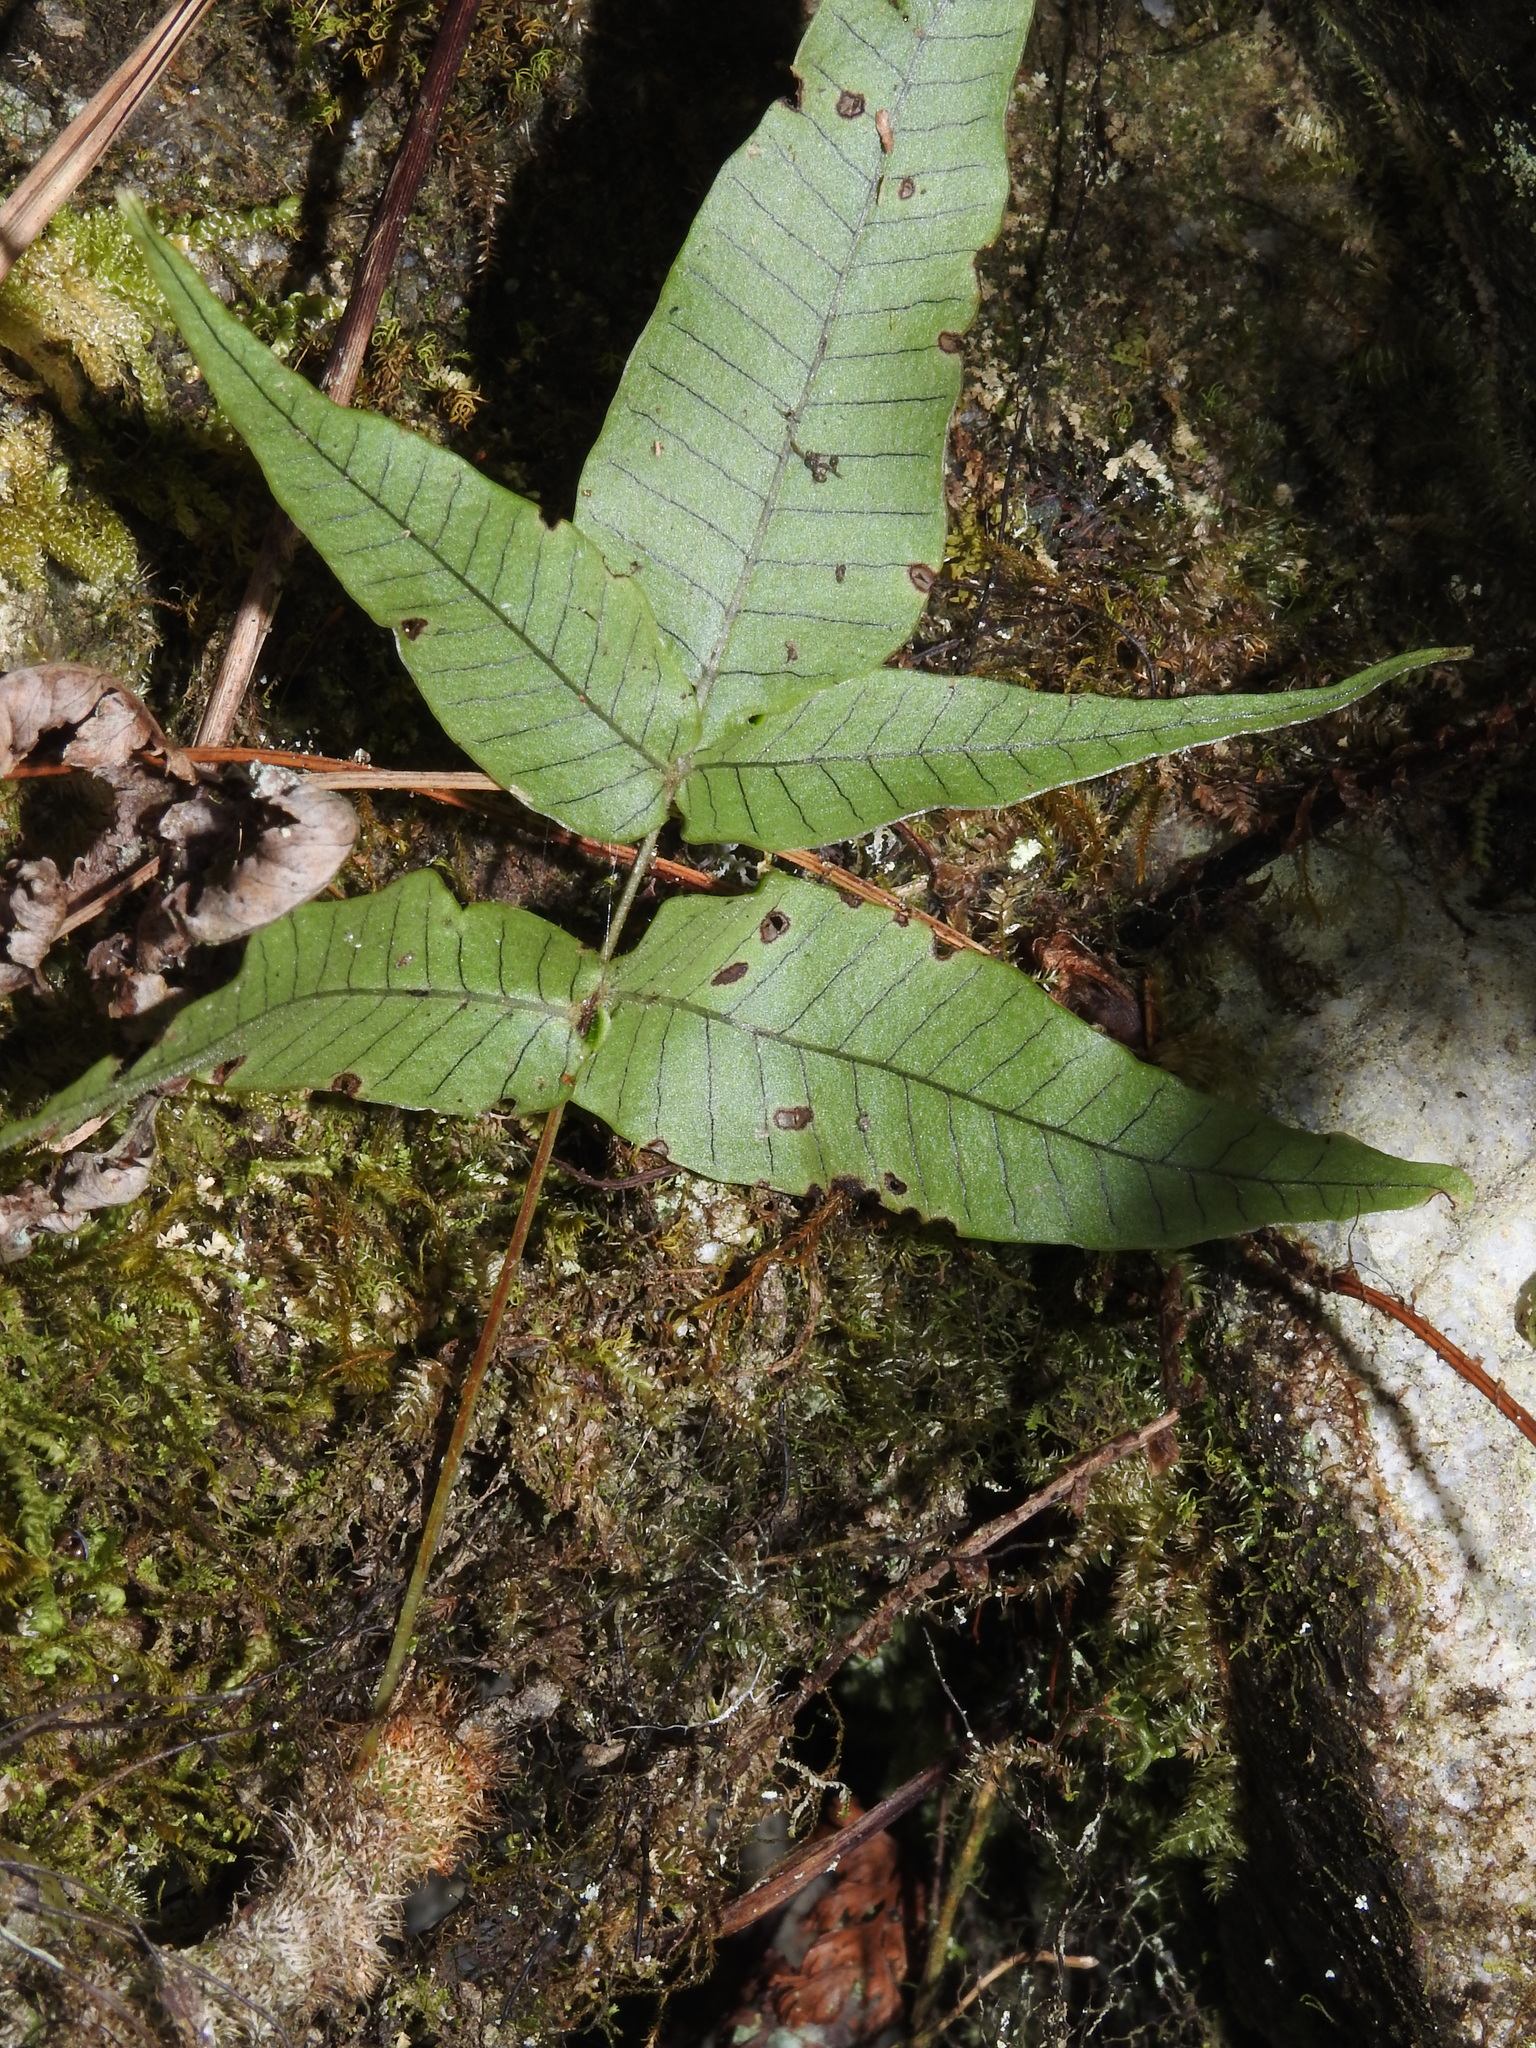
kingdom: Plantae
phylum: Tracheophyta
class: Polypodiopsida
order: Polypodiales
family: Polypodiaceae
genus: Selliguea
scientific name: Selliguea lehmannii
